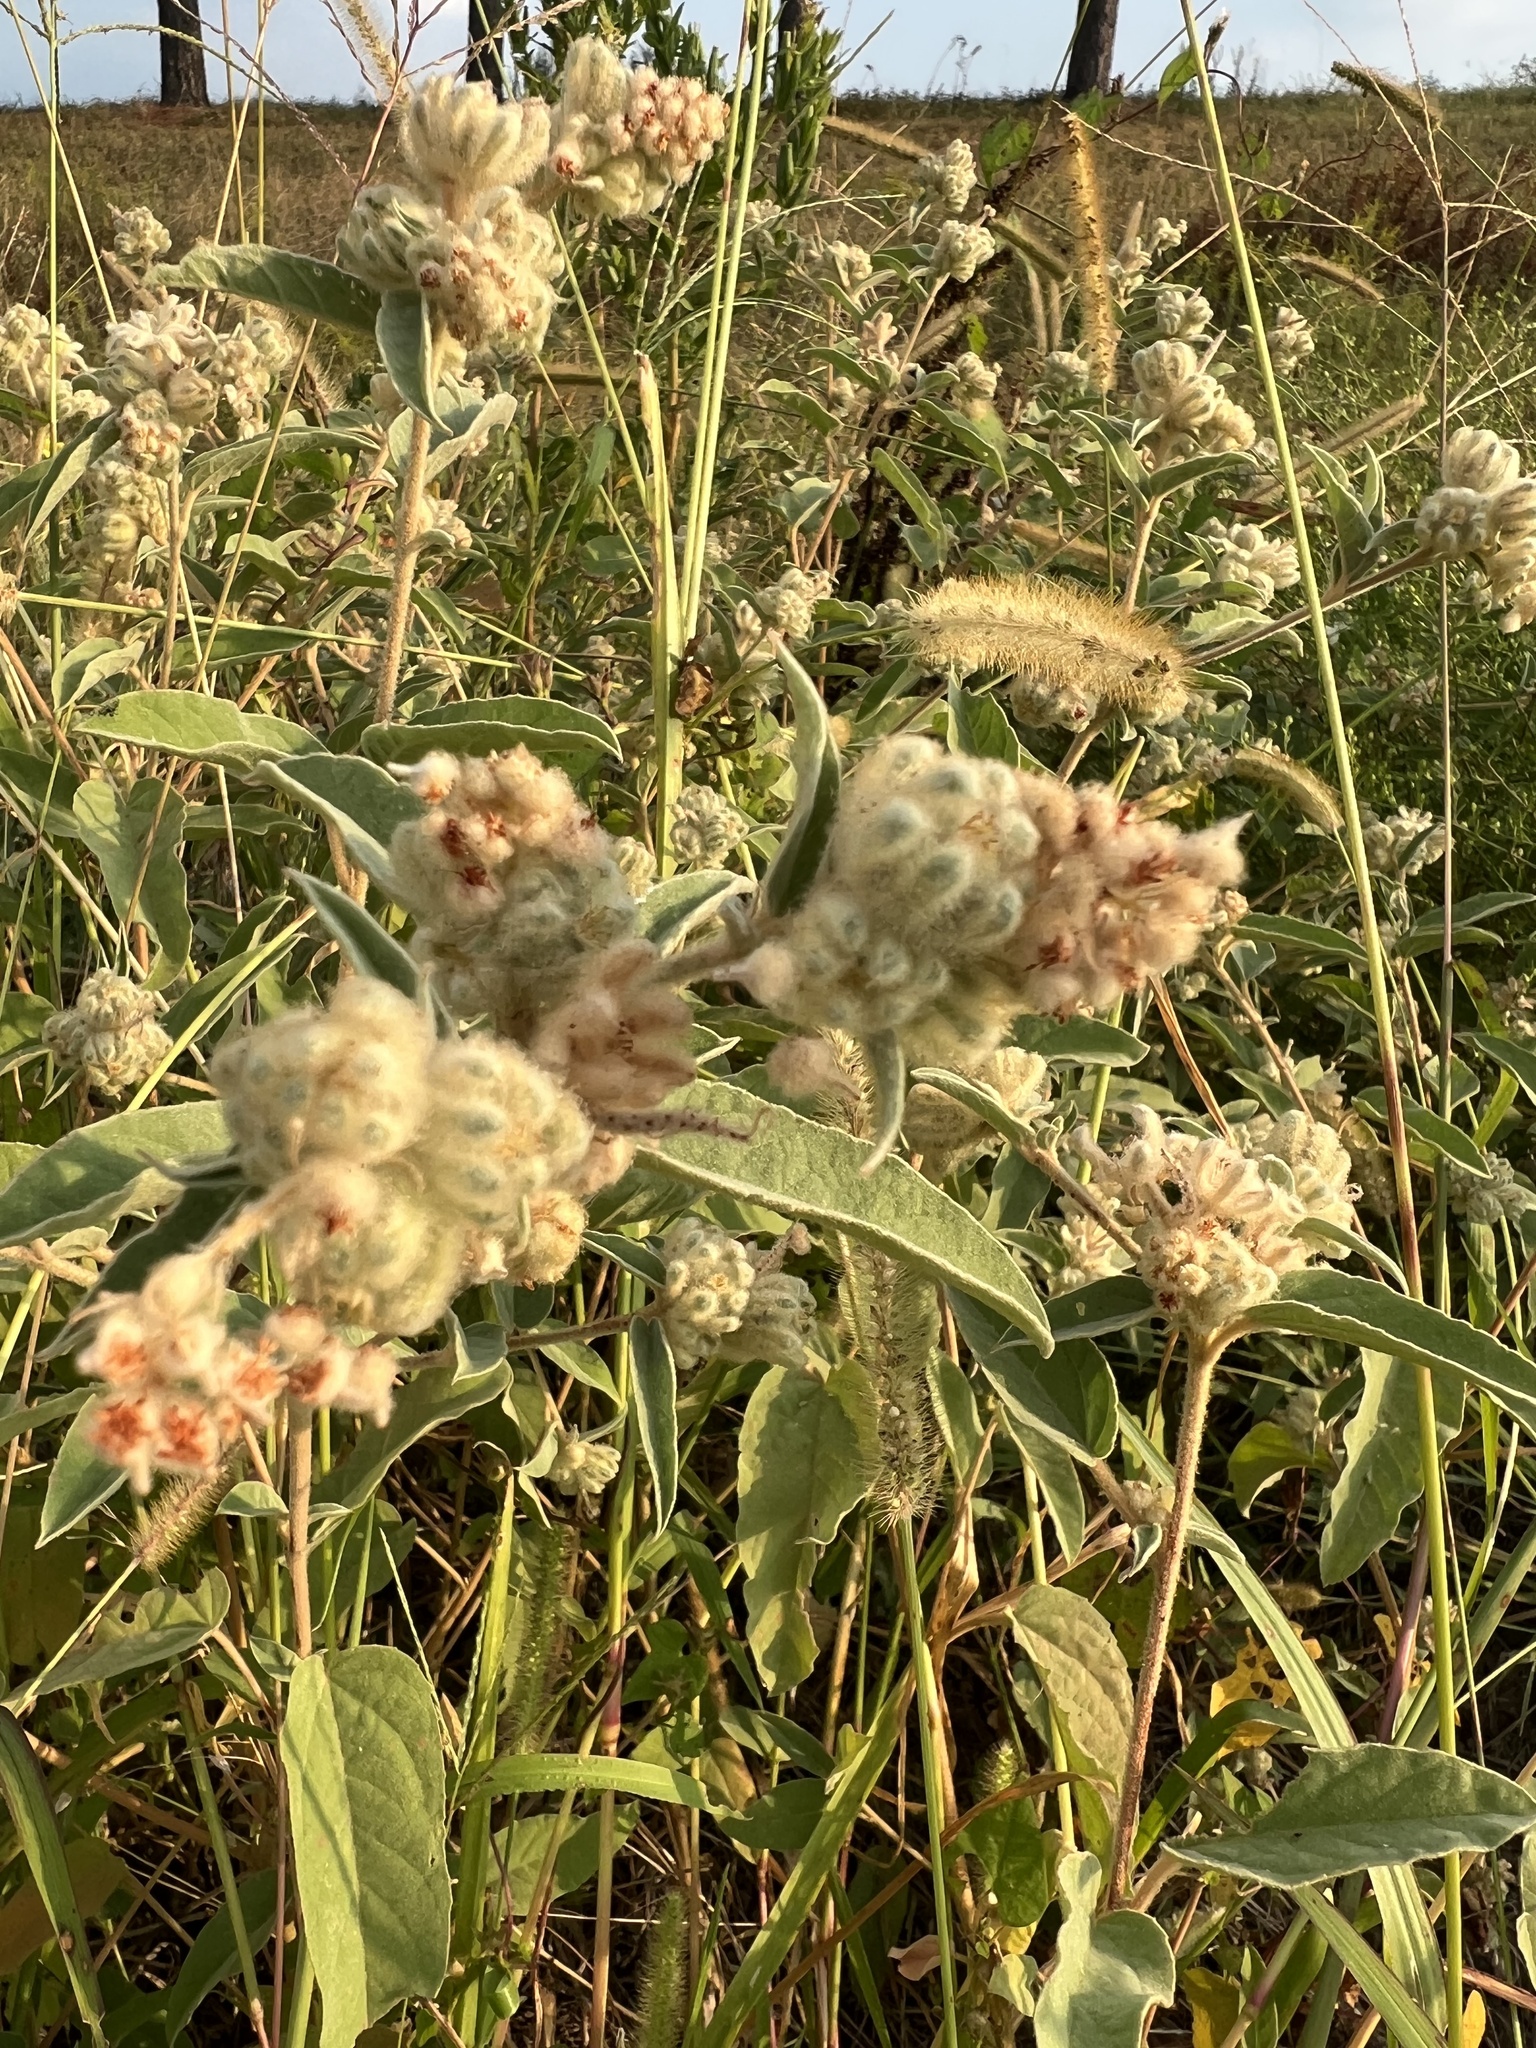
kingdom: Plantae
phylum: Tracheophyta
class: Magnoliopsida
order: Malpighiales
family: Euphorbiaceae
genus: Croton
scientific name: Croton lindheimeri
